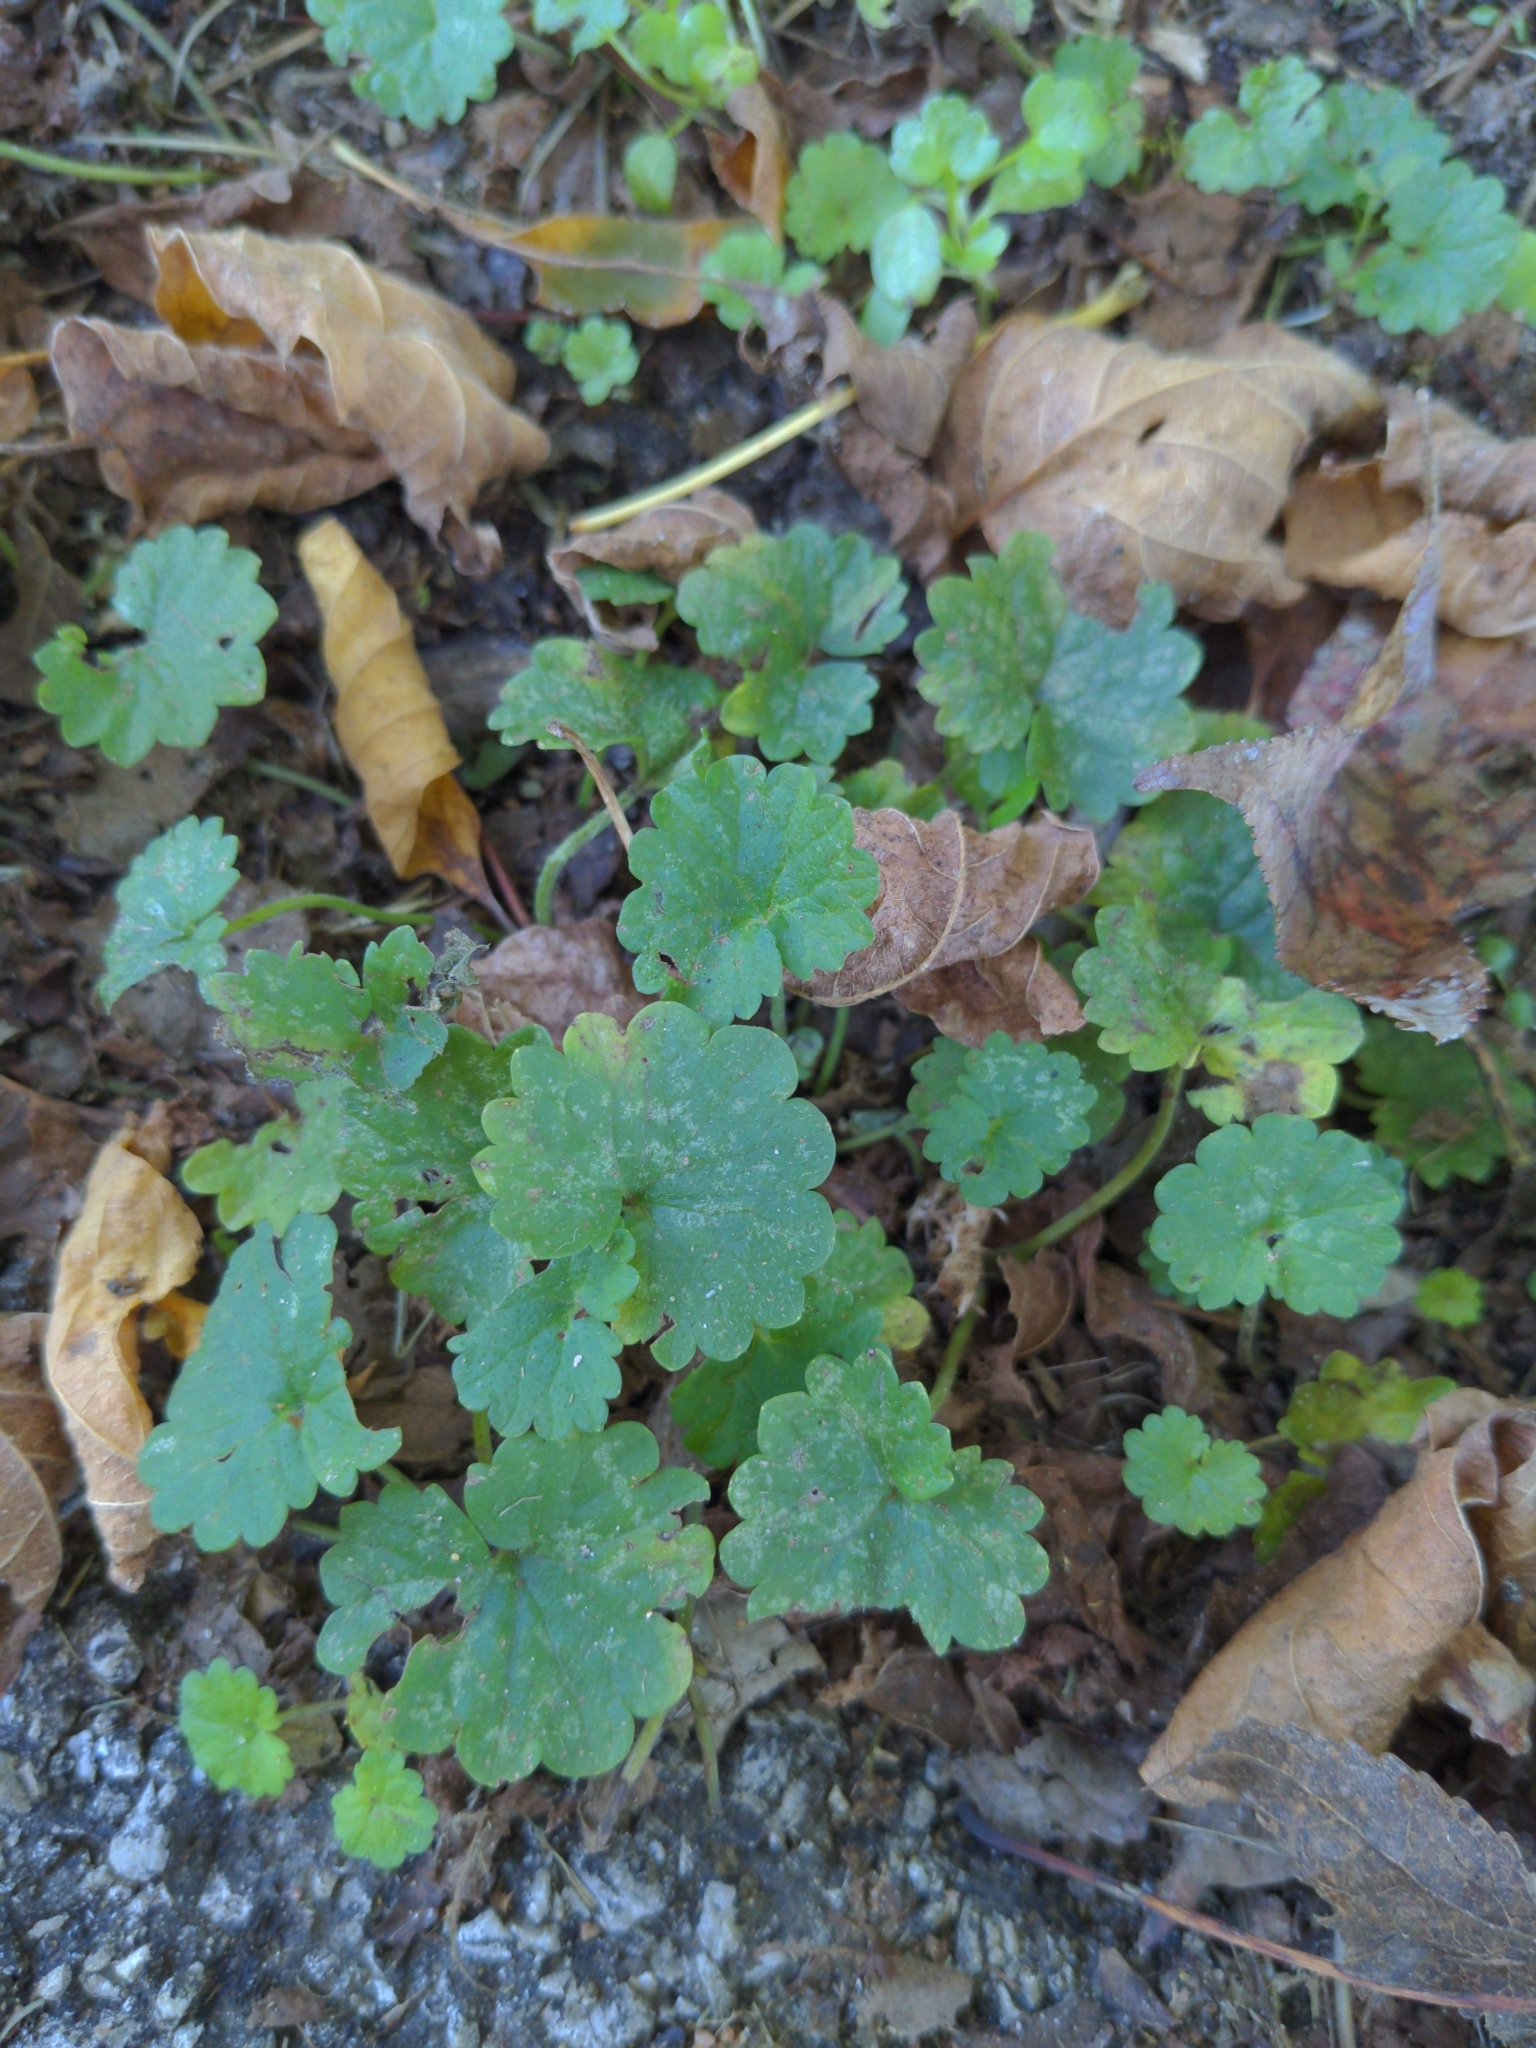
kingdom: Plantae
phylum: Tracheophyta
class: Magnoliopsida
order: Lamiales
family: Lamiaceae
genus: Glechoma
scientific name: Glechoma hederacea
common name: Ground ivy
